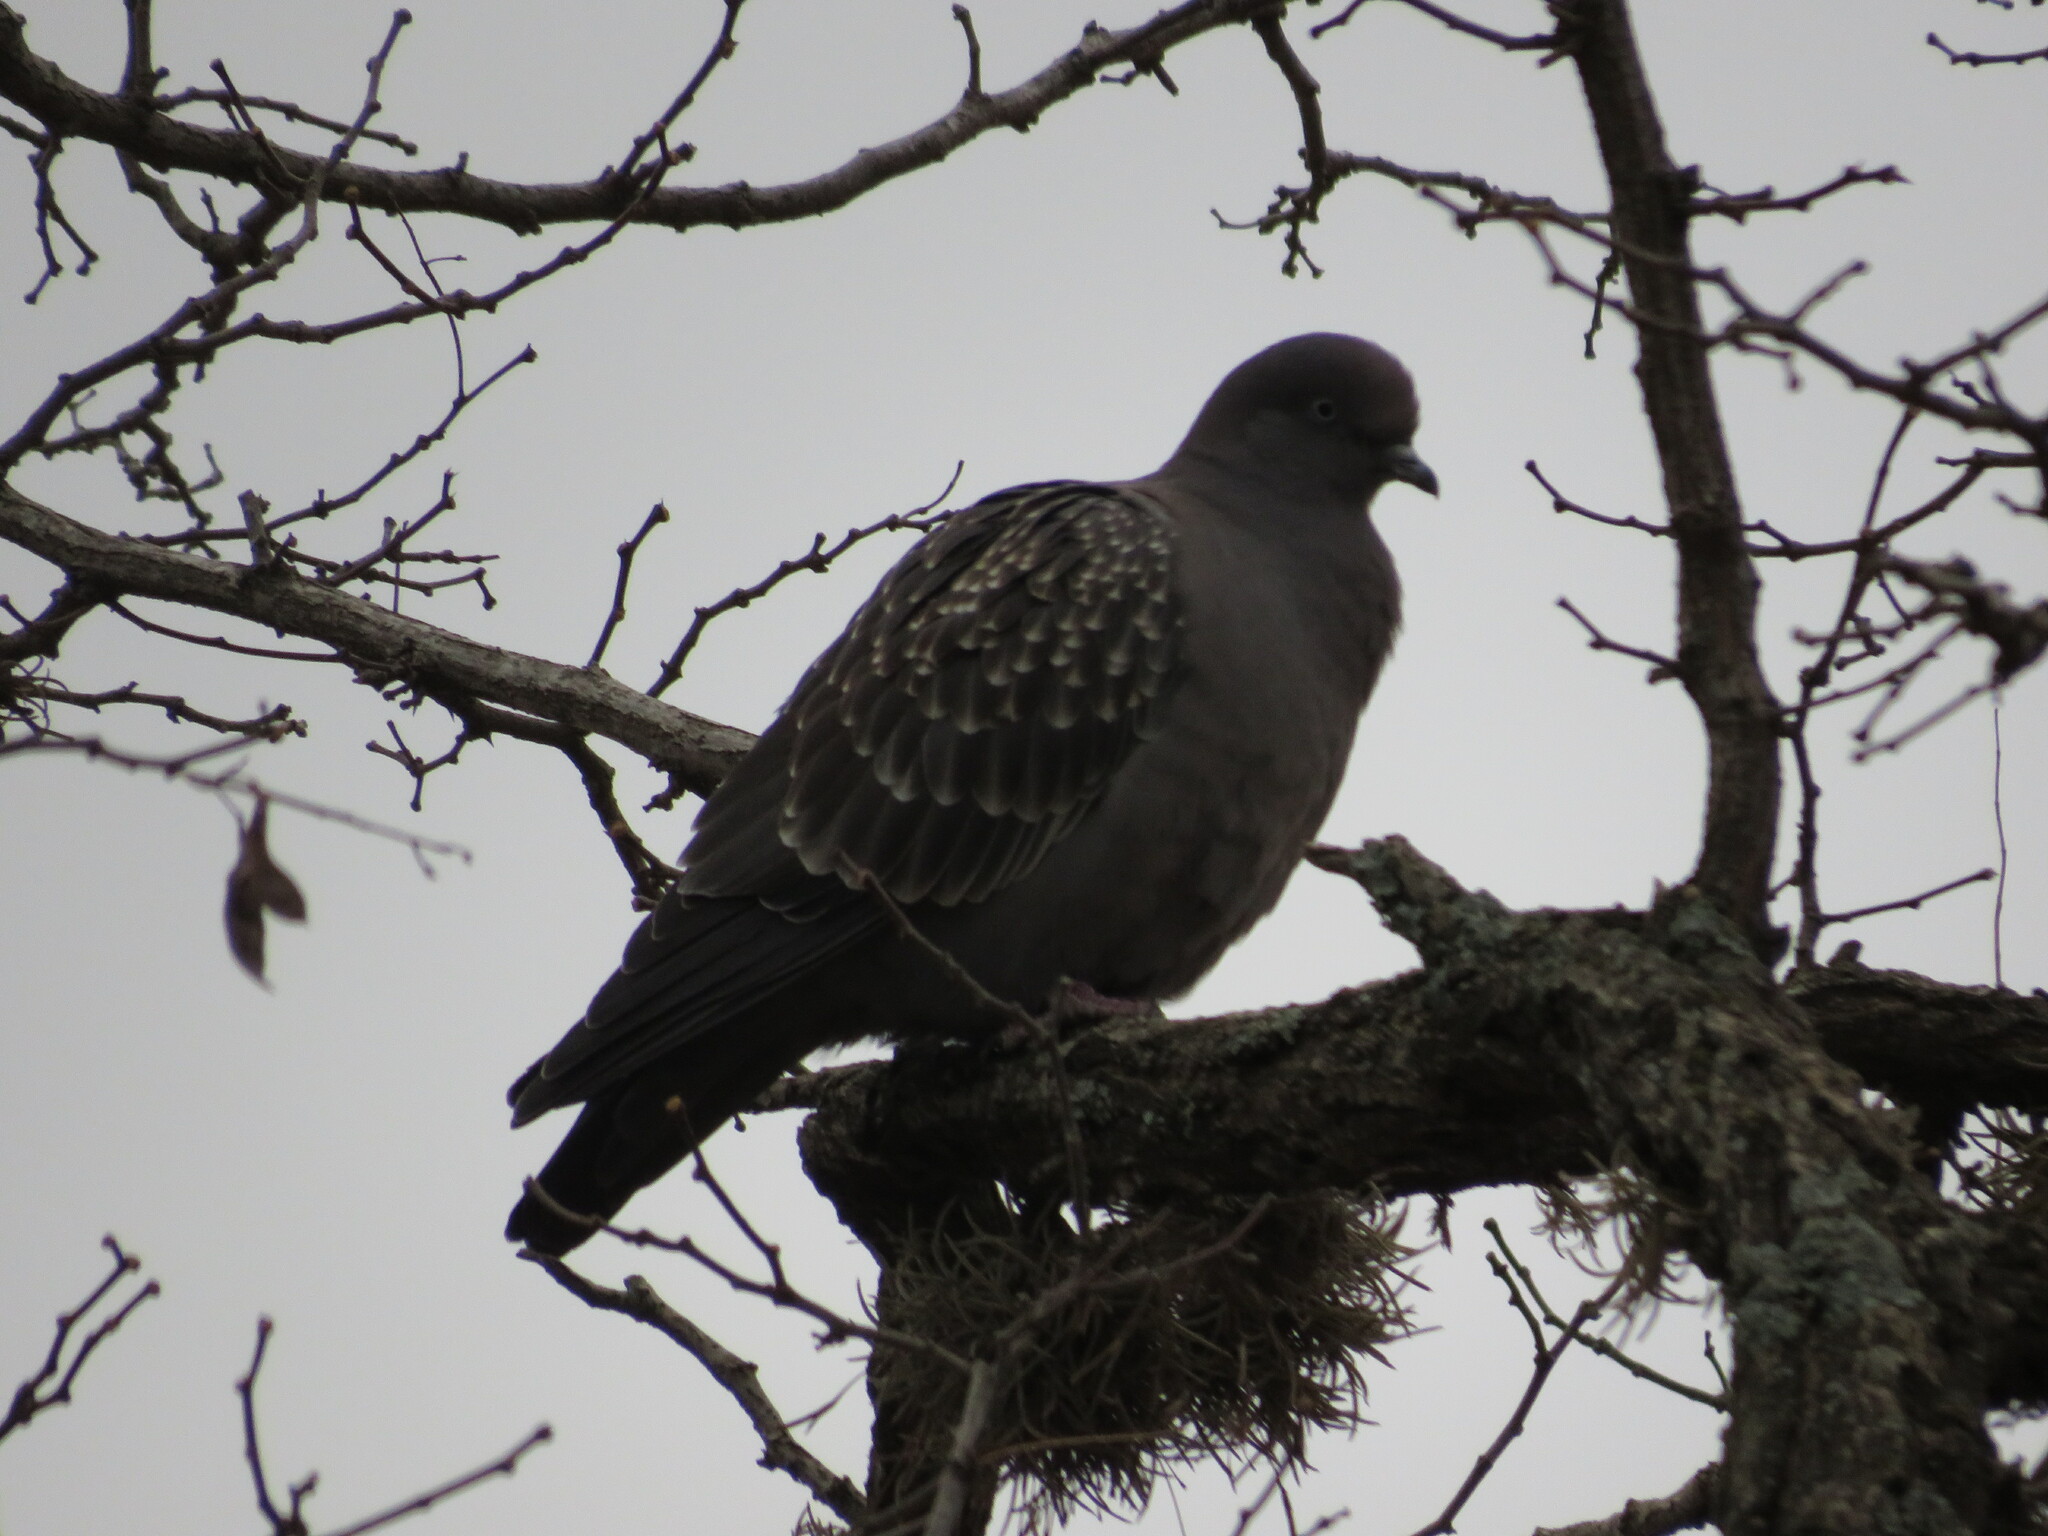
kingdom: Animalia
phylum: Chordata
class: Aves
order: Columbiformes
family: Columbidae
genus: Patagioenas
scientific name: Patagioenas maculosa
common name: Spot-winged pigeon
